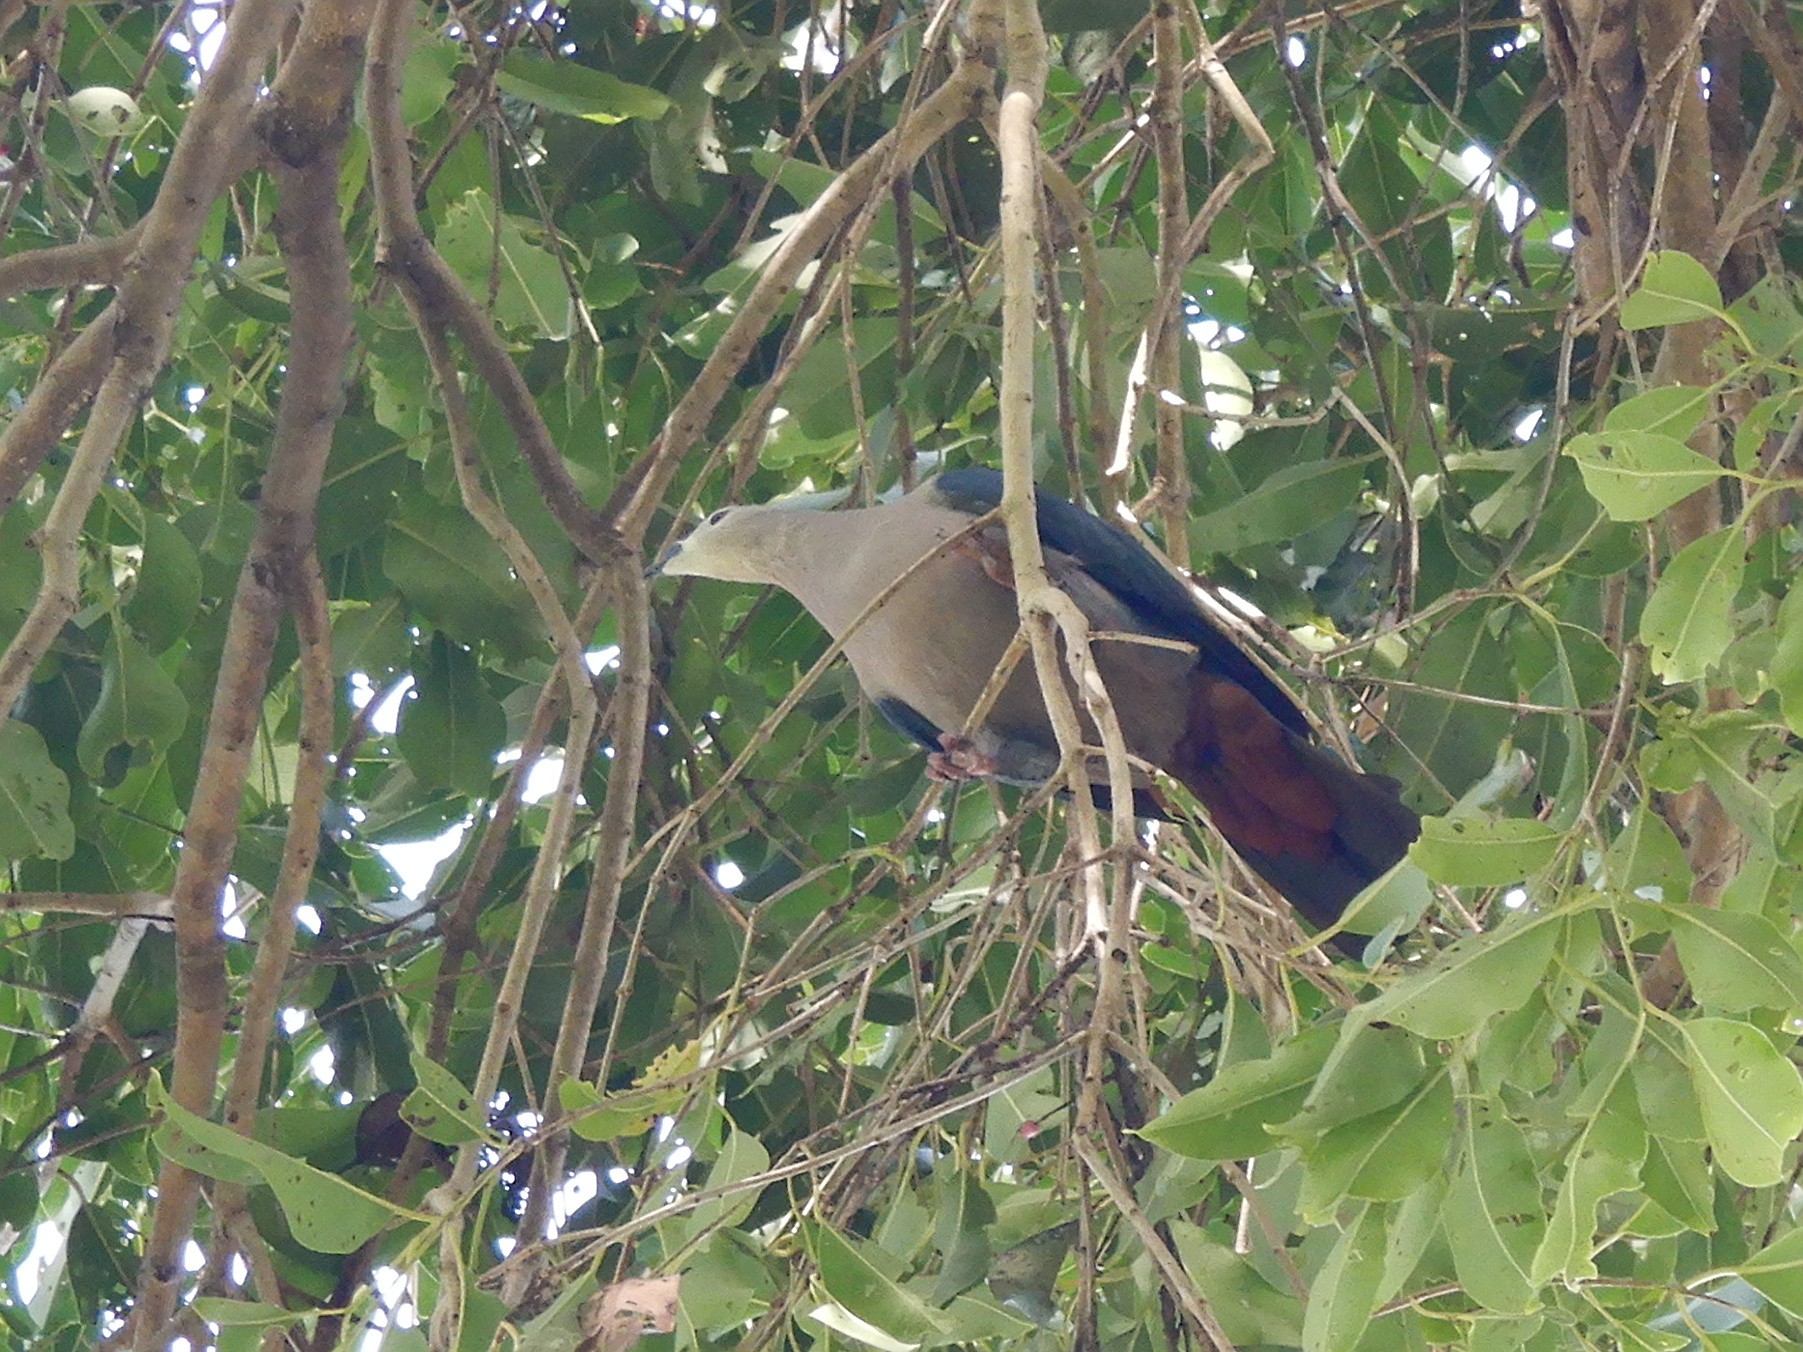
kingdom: Animalia
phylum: Chordata
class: Aves
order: Columbiformes
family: Columbidae
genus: Ducula
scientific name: Ducula pacifica
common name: Pacific imperial-pigeon
